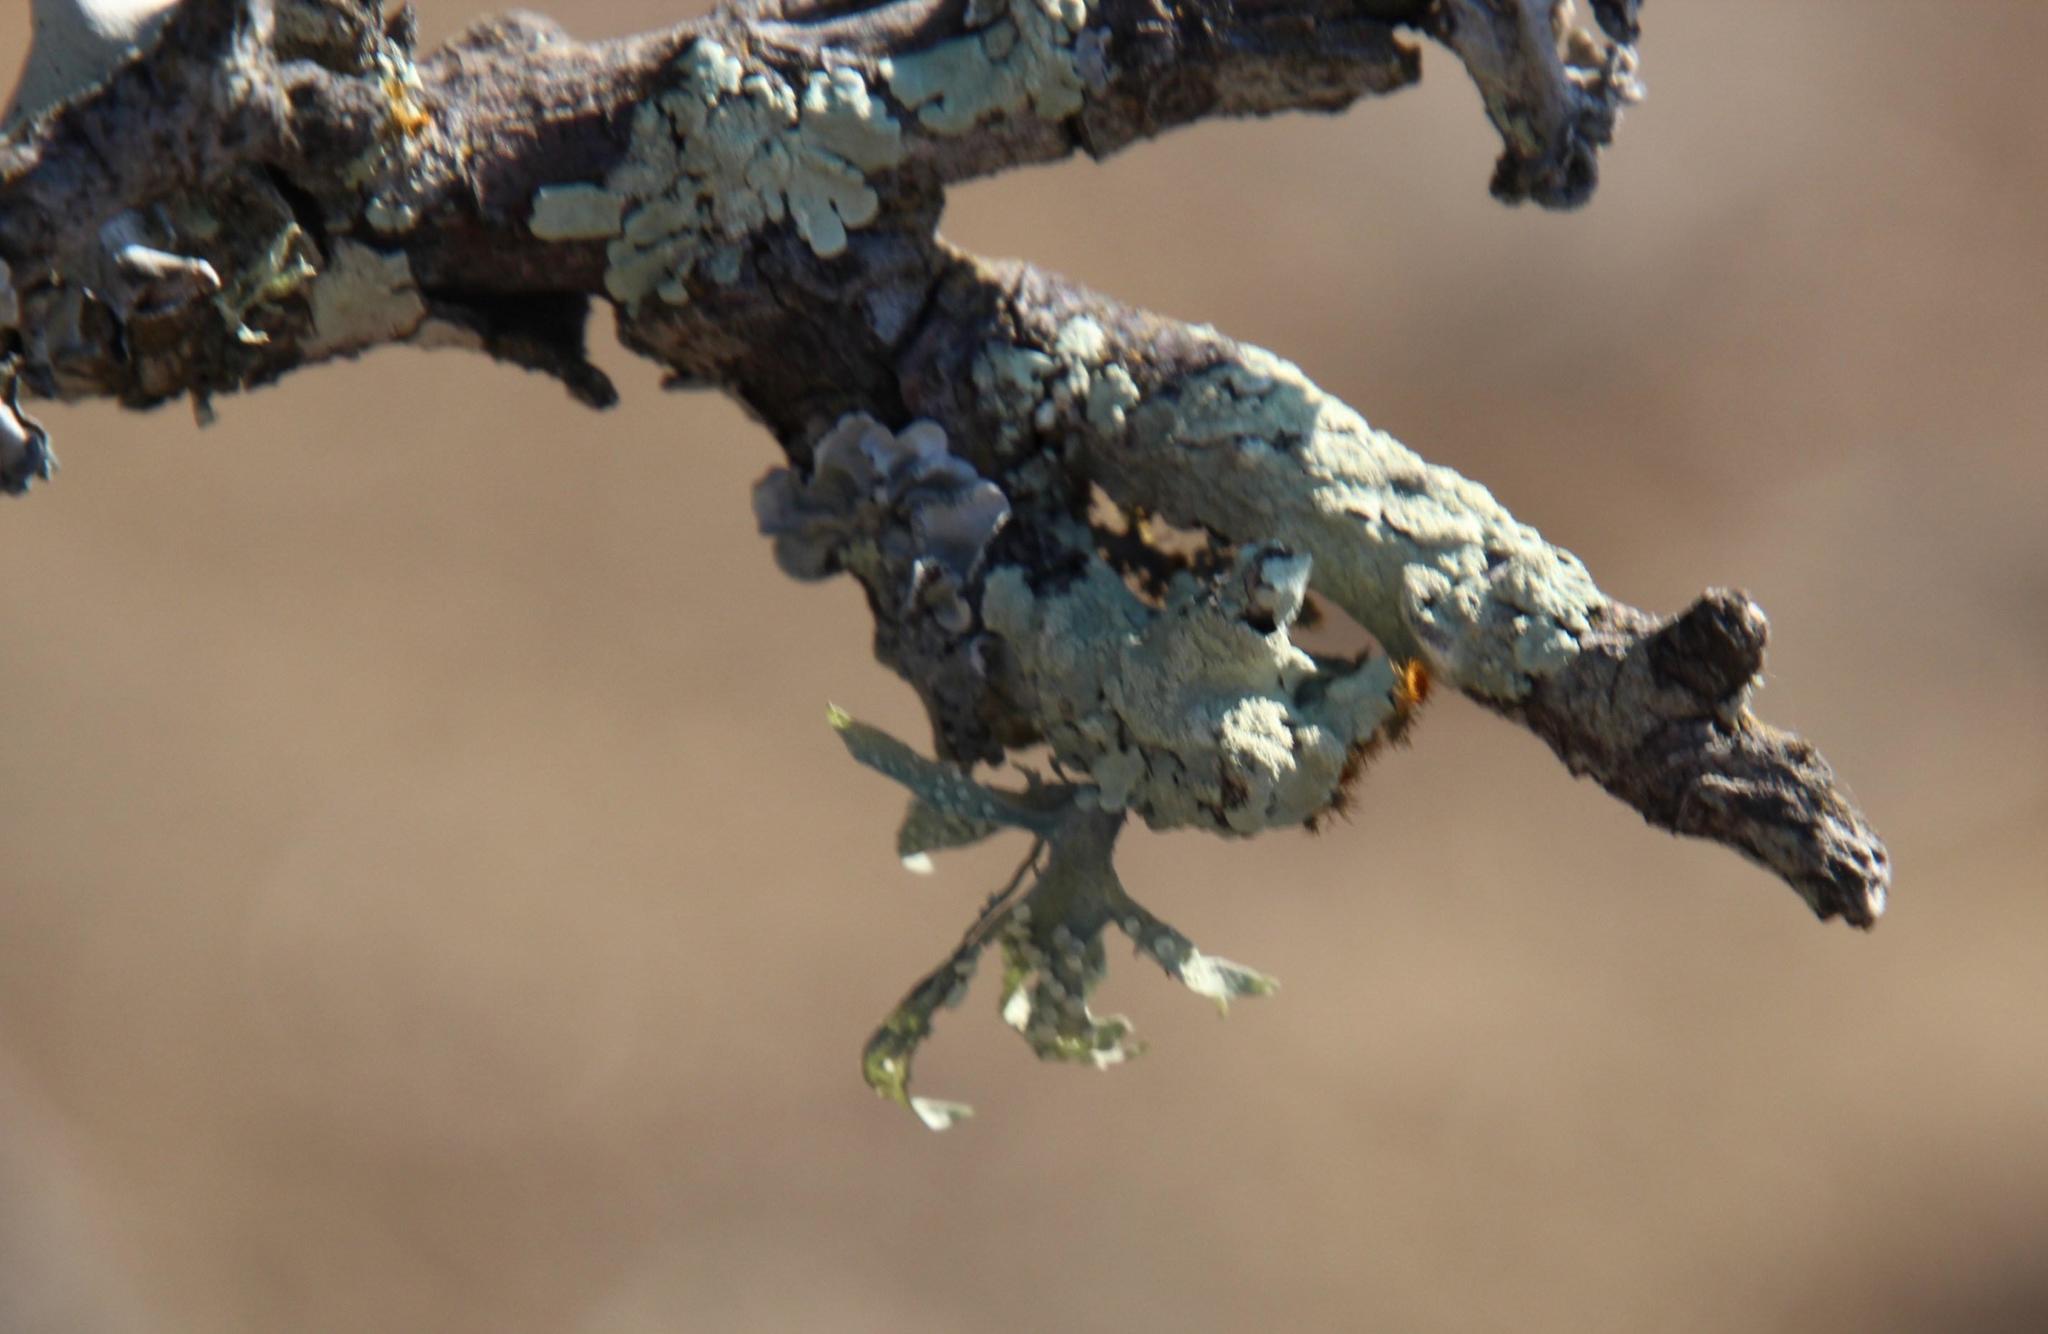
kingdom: Fungi
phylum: Ascomycota
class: Lecanoromycetes
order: Lecanorales
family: Ramalinaceae
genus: Ramalina
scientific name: Ramalina celastri
